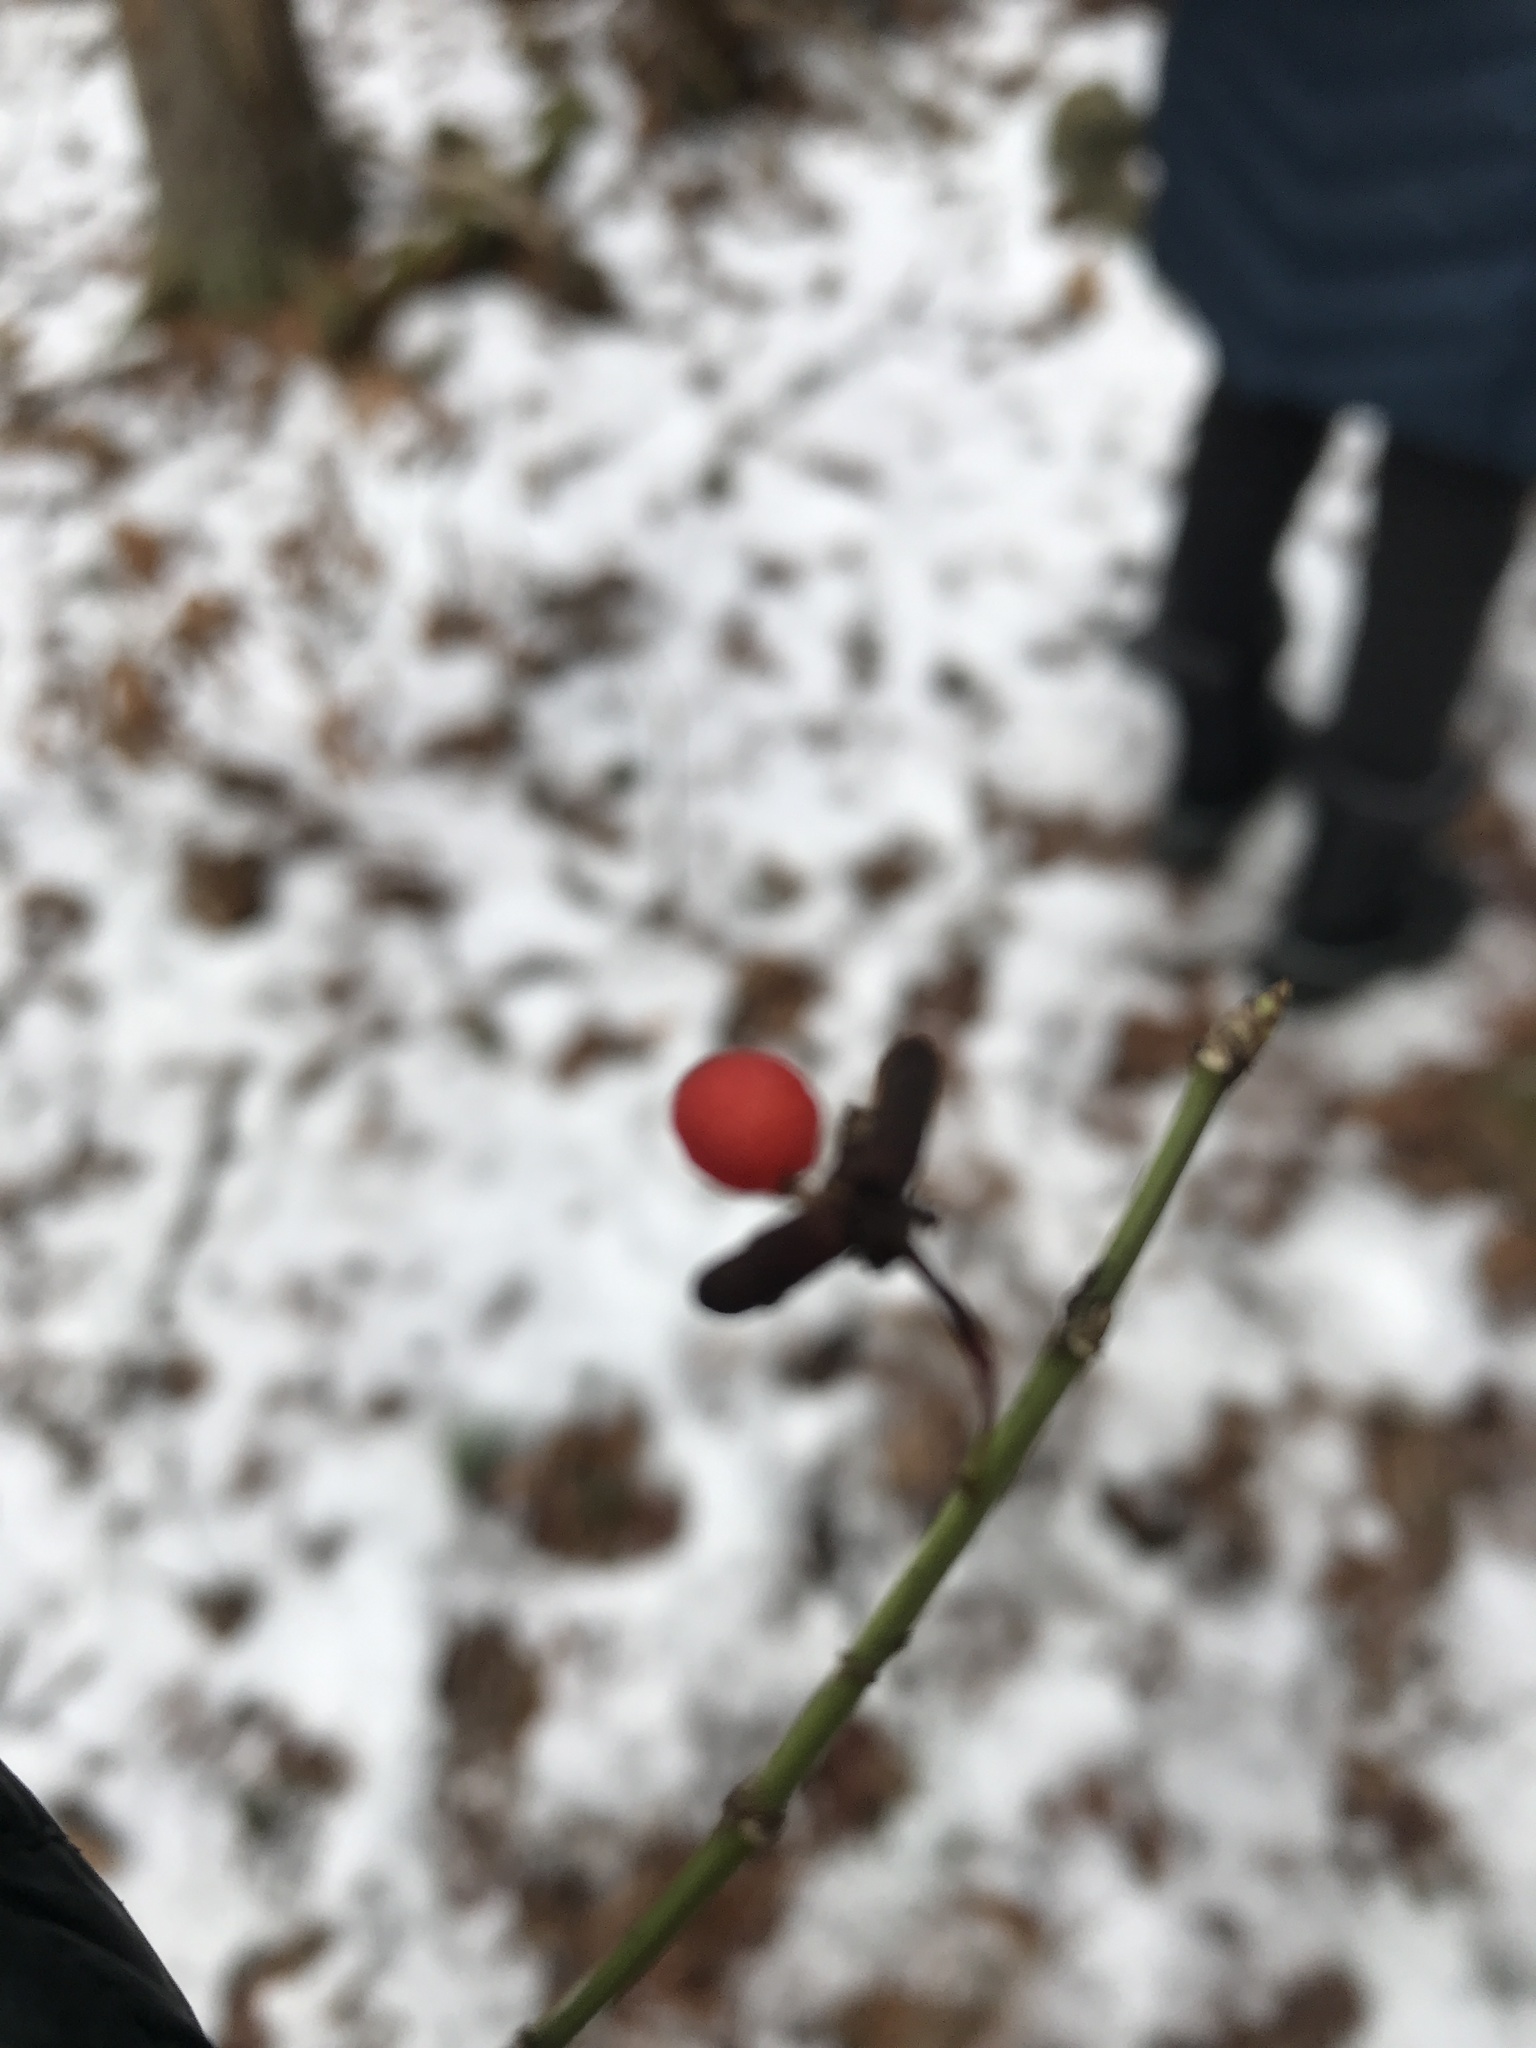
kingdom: Plantae
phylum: Tracheophyta
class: Magnoliopsida
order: Celastrales
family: Celastraceae
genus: Euonymus
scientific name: Euonymus alatus
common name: Winged euonymus
